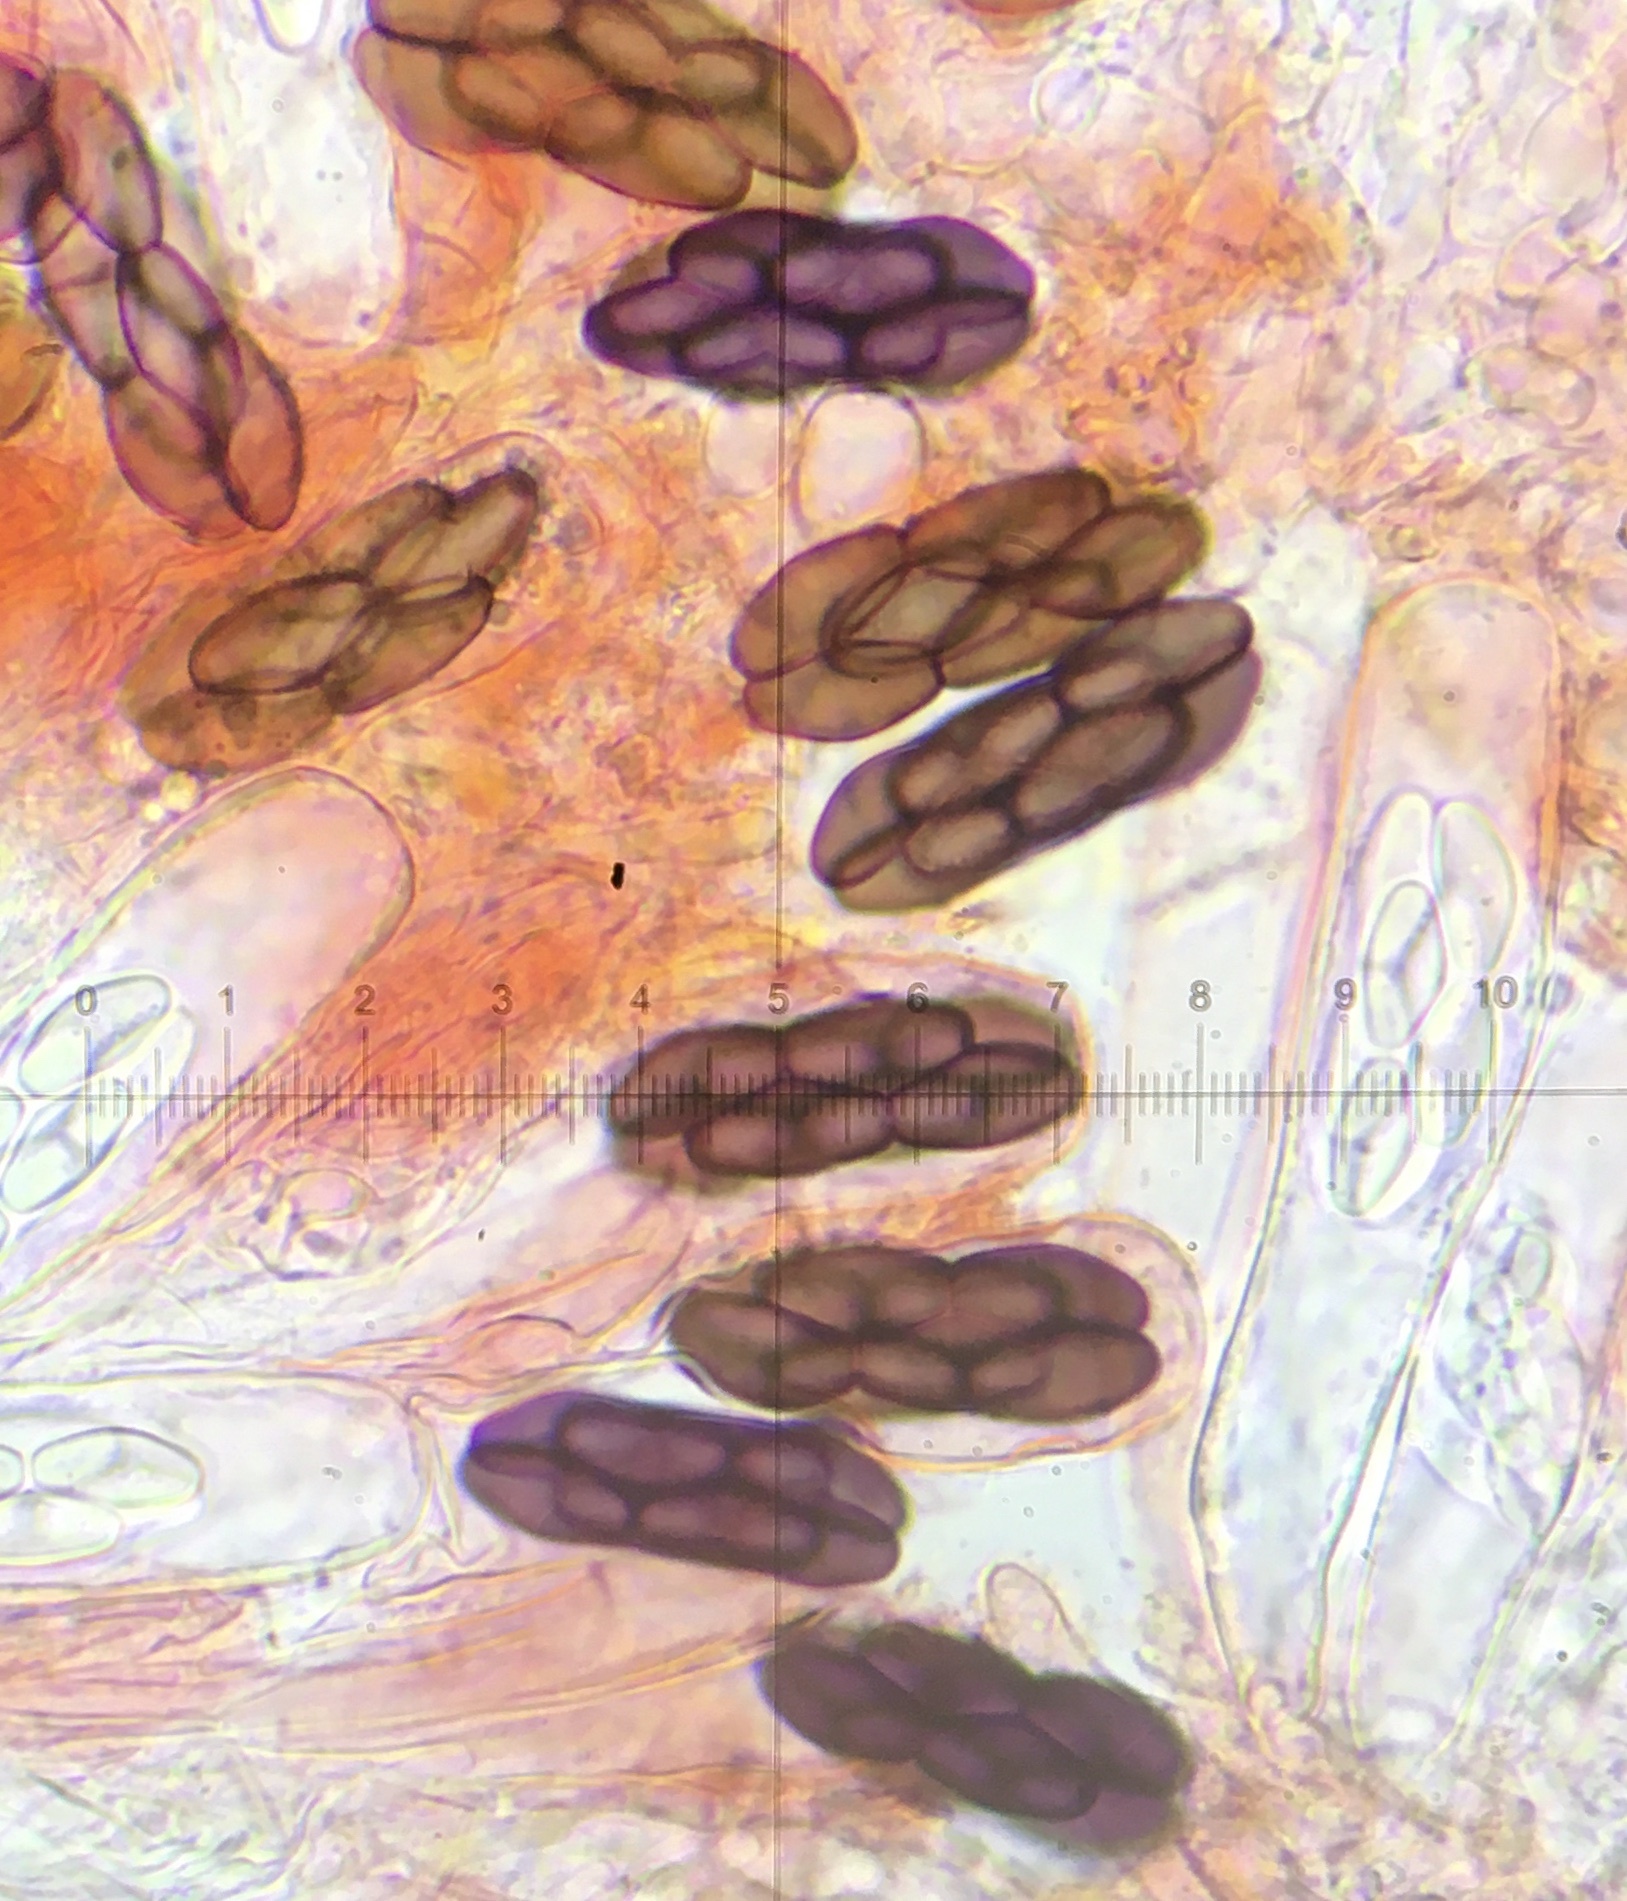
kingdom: Fungi
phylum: Ascomycota
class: Pezizomycetes
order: Pezizales
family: Ascobolaceae
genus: Saccobolus
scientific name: Saccobolus truncatus
